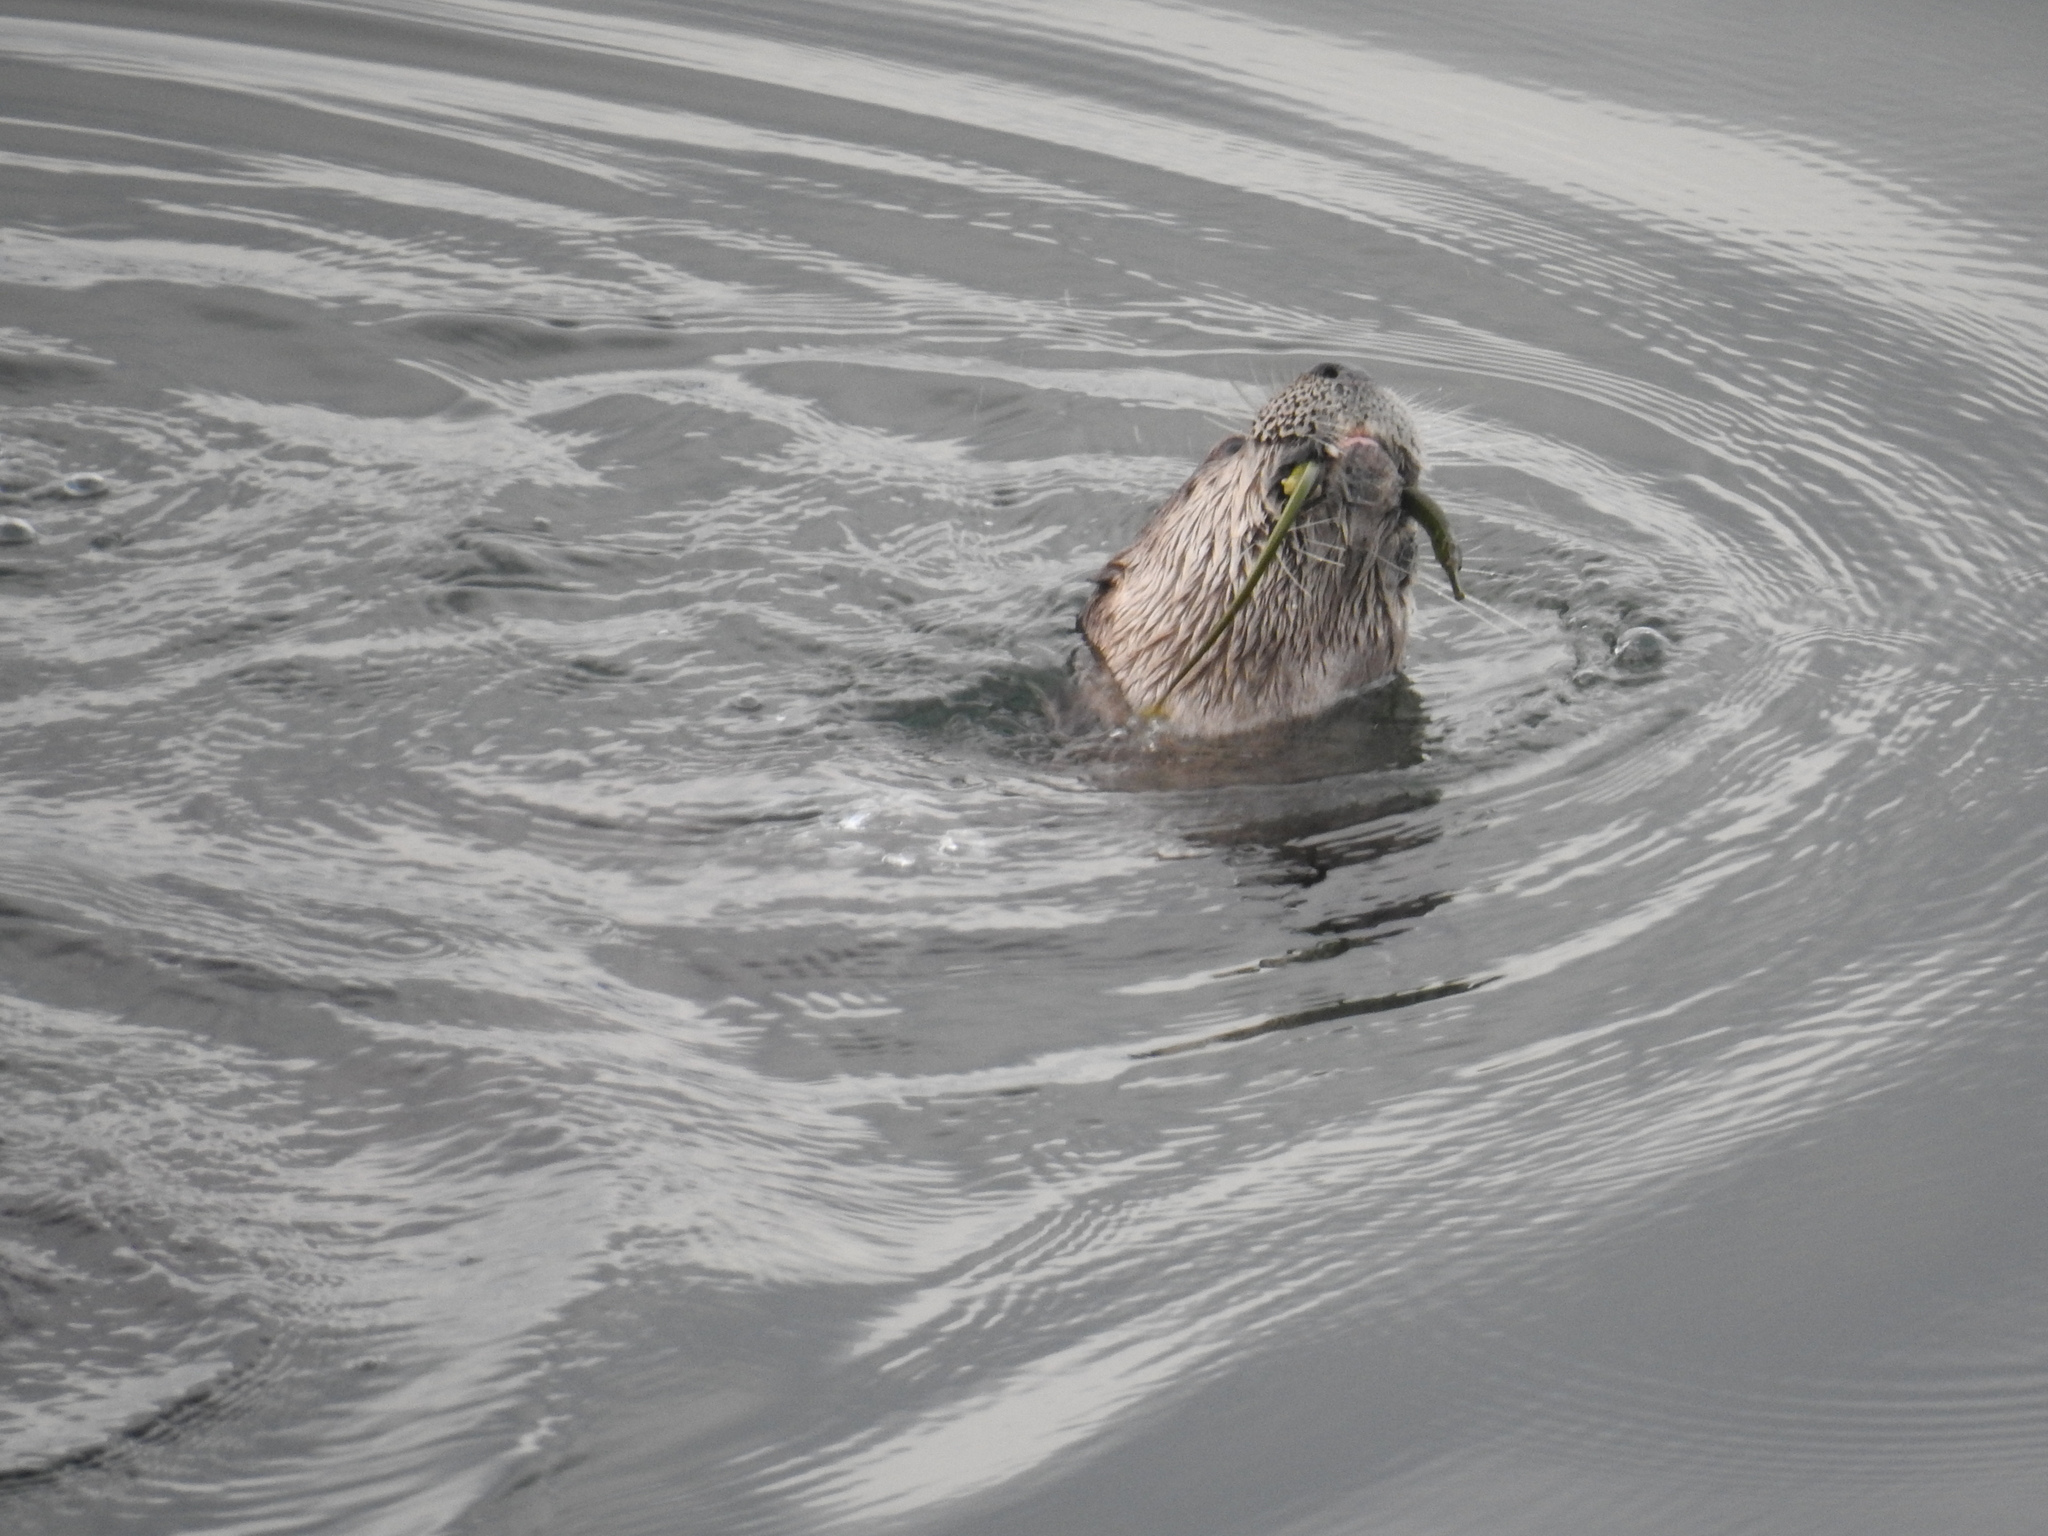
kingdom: Animalia
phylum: Chordata
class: Mammalia
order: Carnivora
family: Mustelidae
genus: Lontra
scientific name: Lontra canadensis
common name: North american river otter
